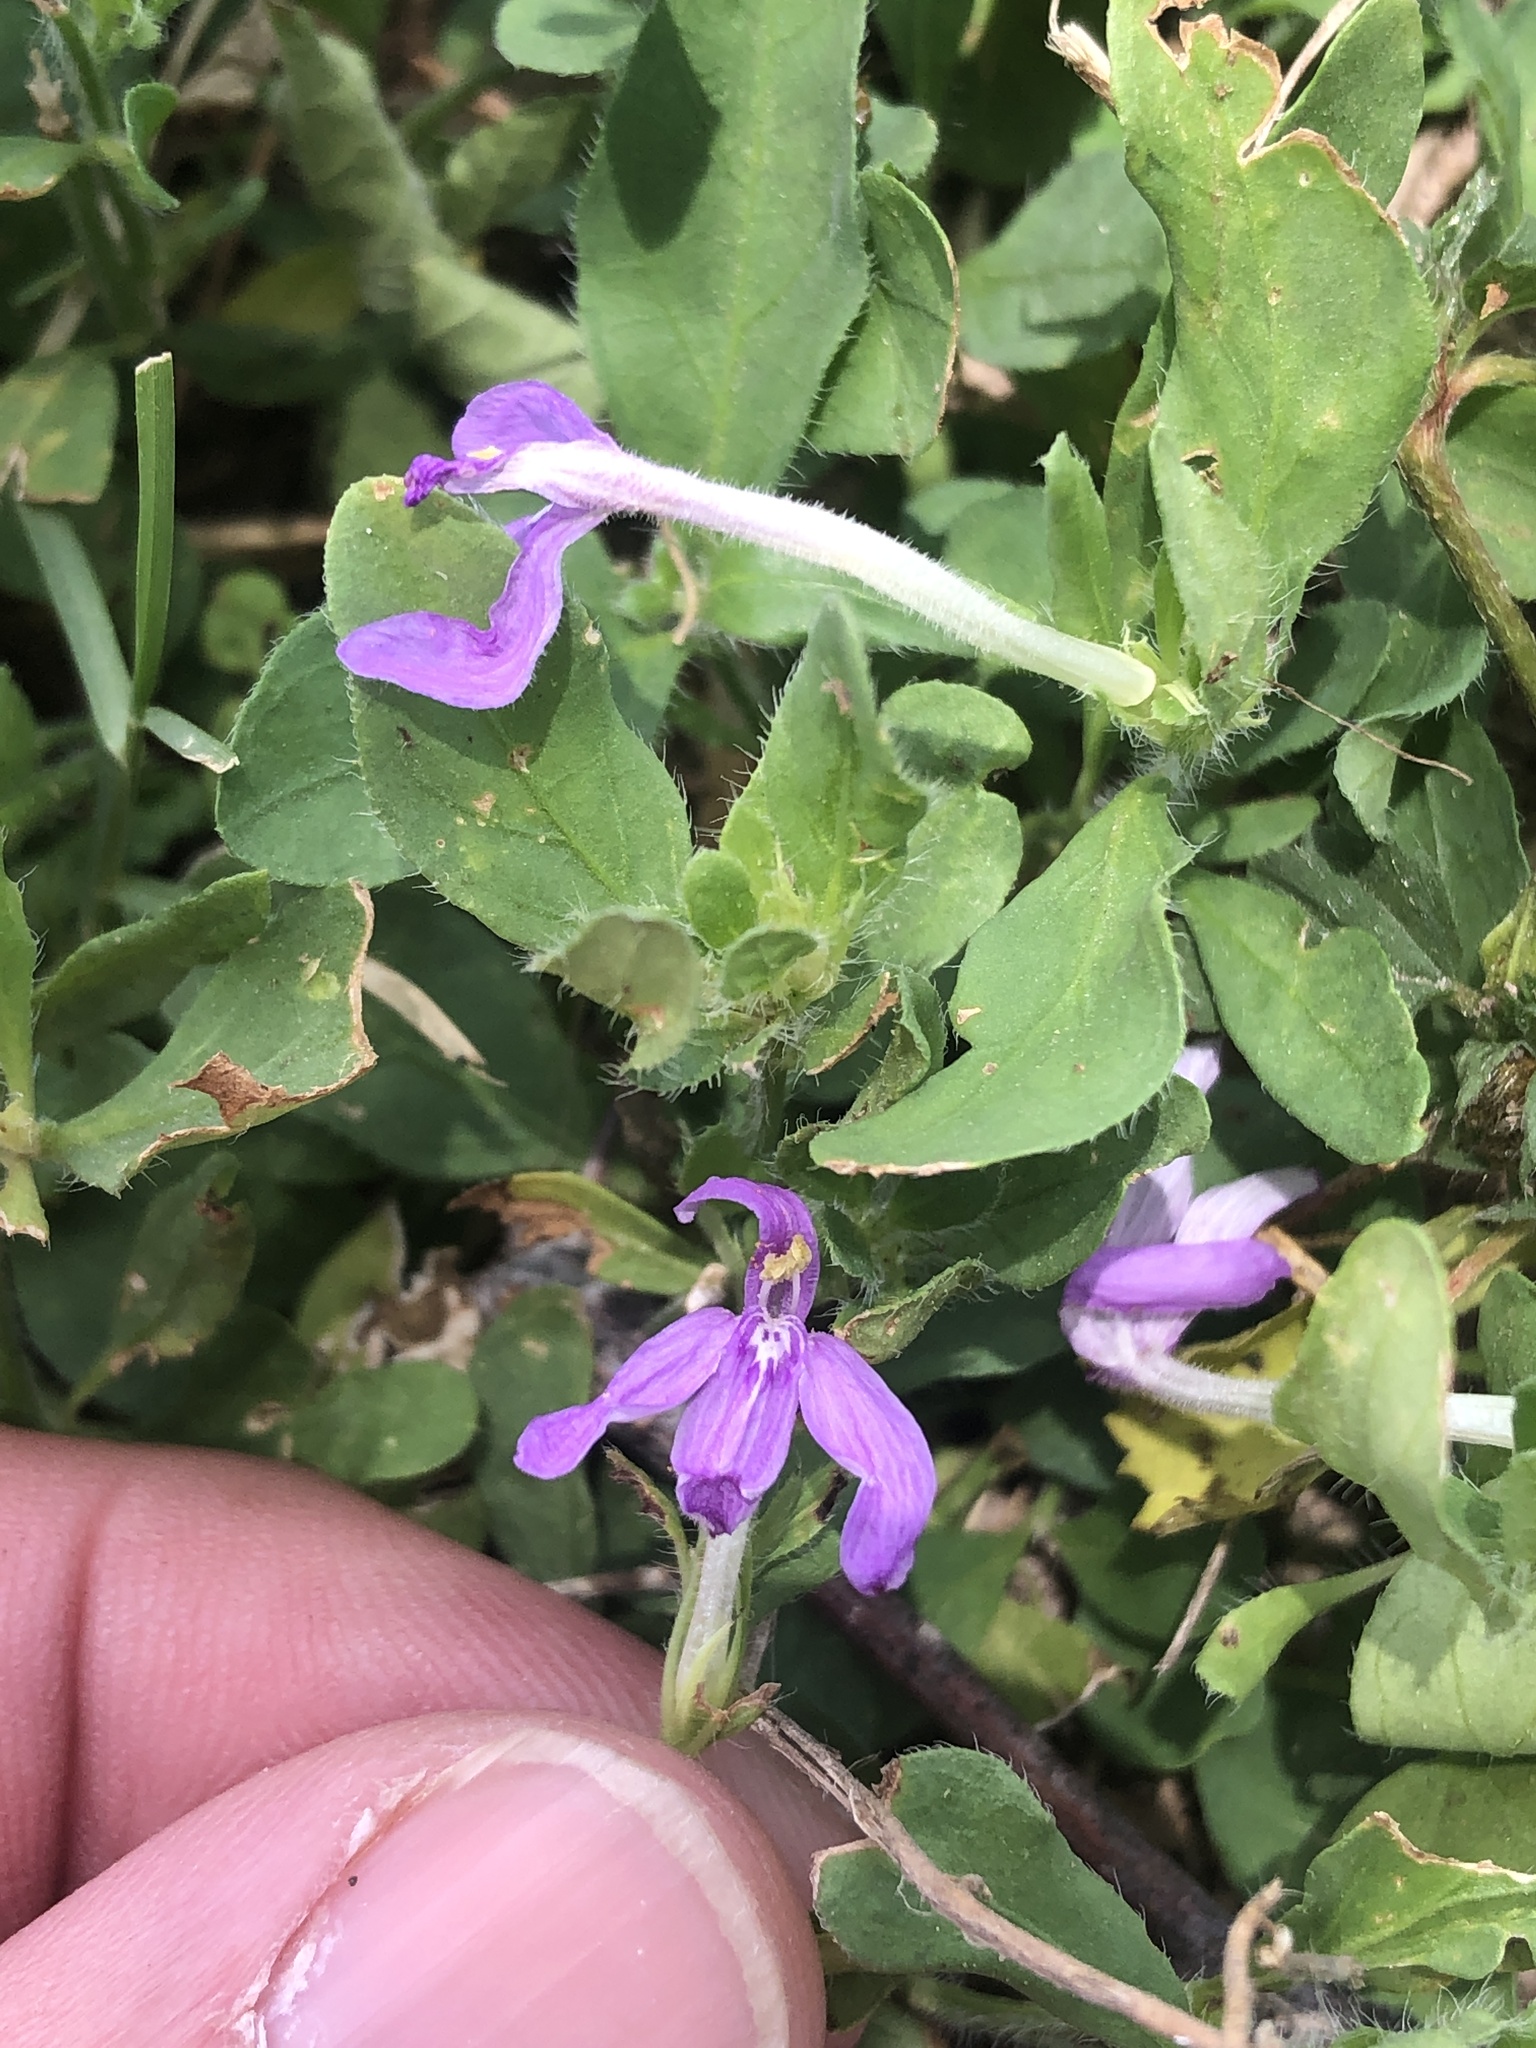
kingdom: Plantae
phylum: Tracheophyta
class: Magnoliopsida
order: Lamiales
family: Acanthaceae
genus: Justicia
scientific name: Justicia pilosella
